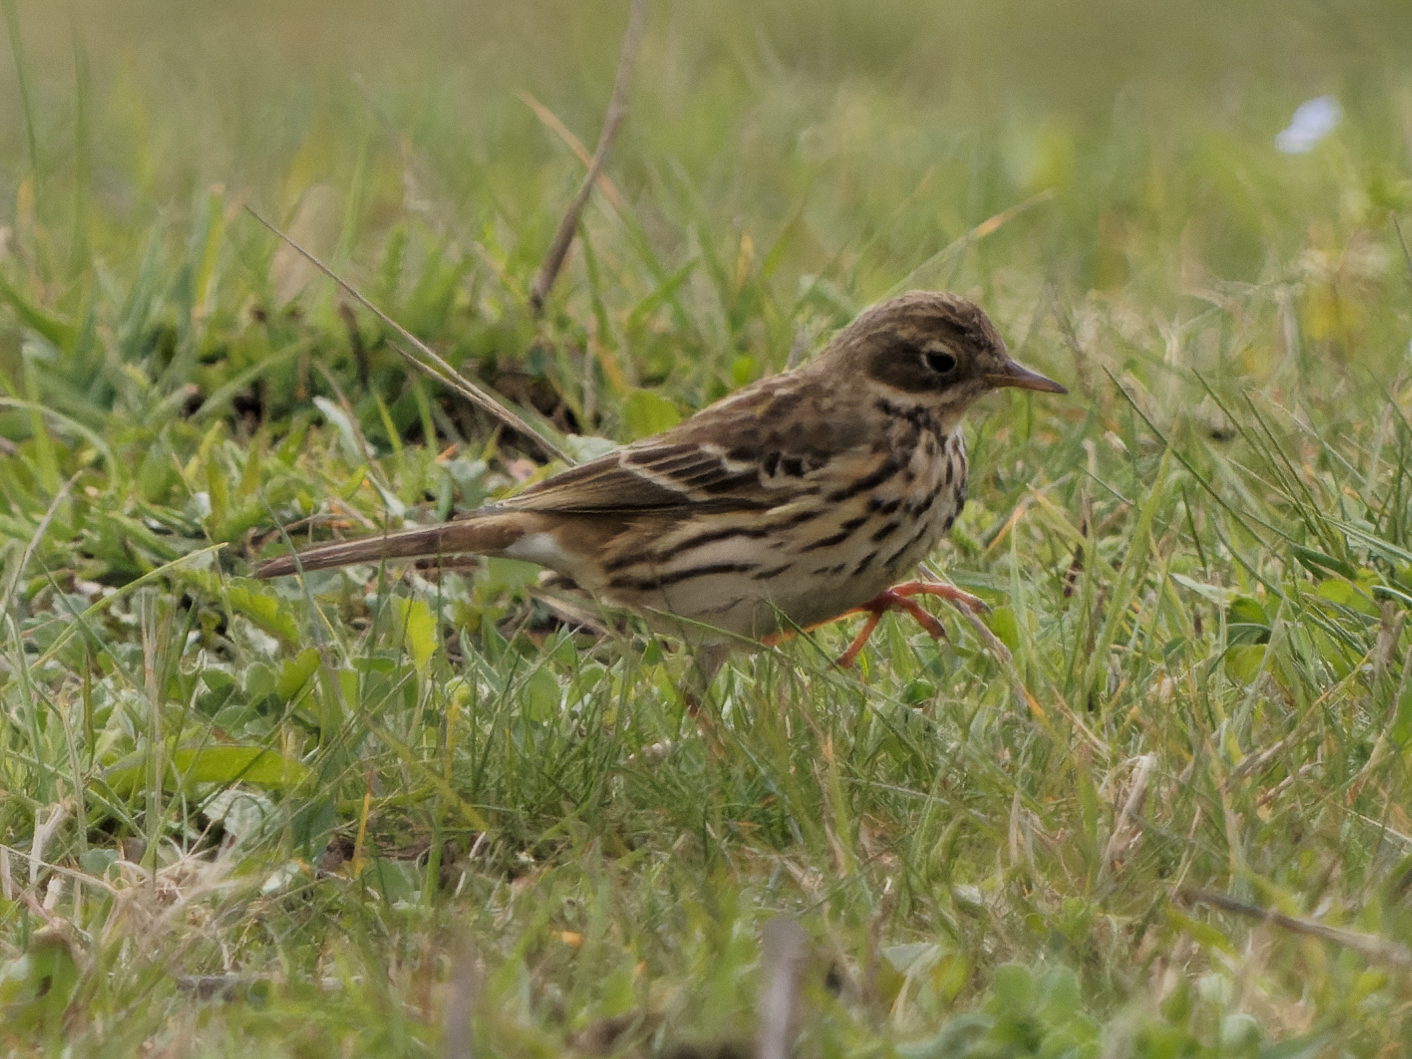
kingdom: Animalia
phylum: Chordata
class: Aves
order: Passeriformes
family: Motacillidae
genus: Anthus
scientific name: Anthus pratensis
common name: Meadow pipit
